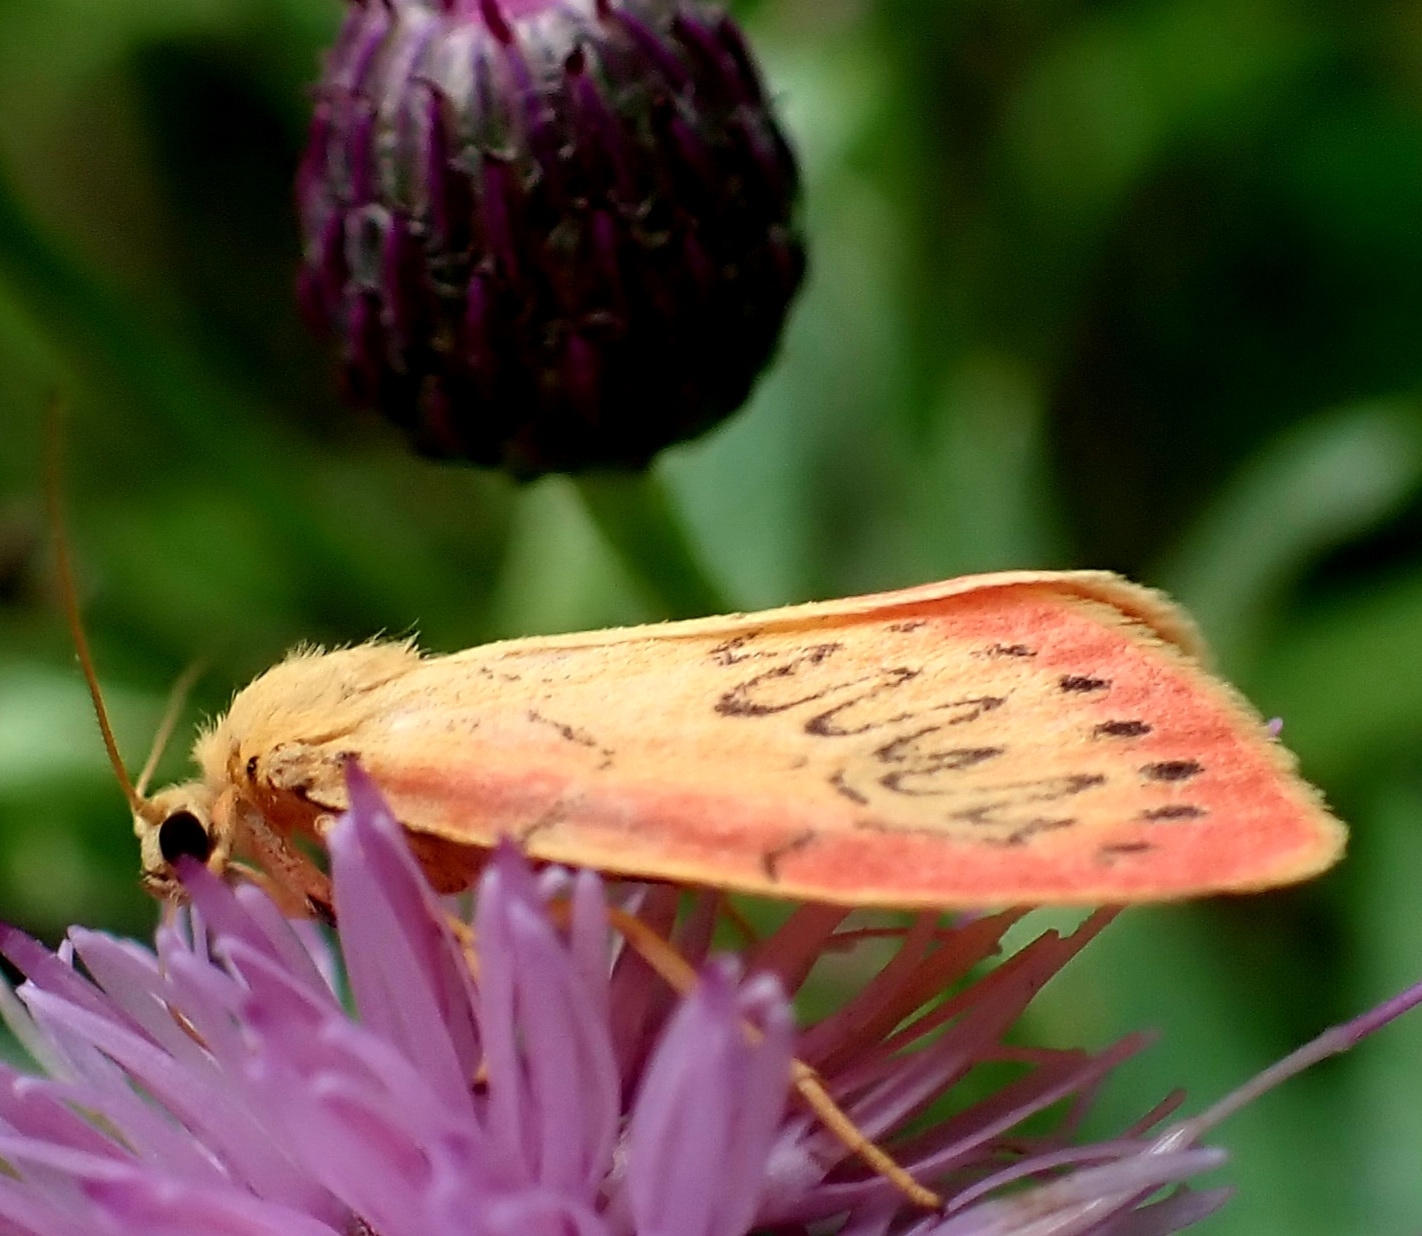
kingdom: Animalia
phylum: Arthropoda
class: Insecta
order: Lepidoptera
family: Erebidae
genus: Miltochrista
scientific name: Miltochrista miniata
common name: Rosy footman
